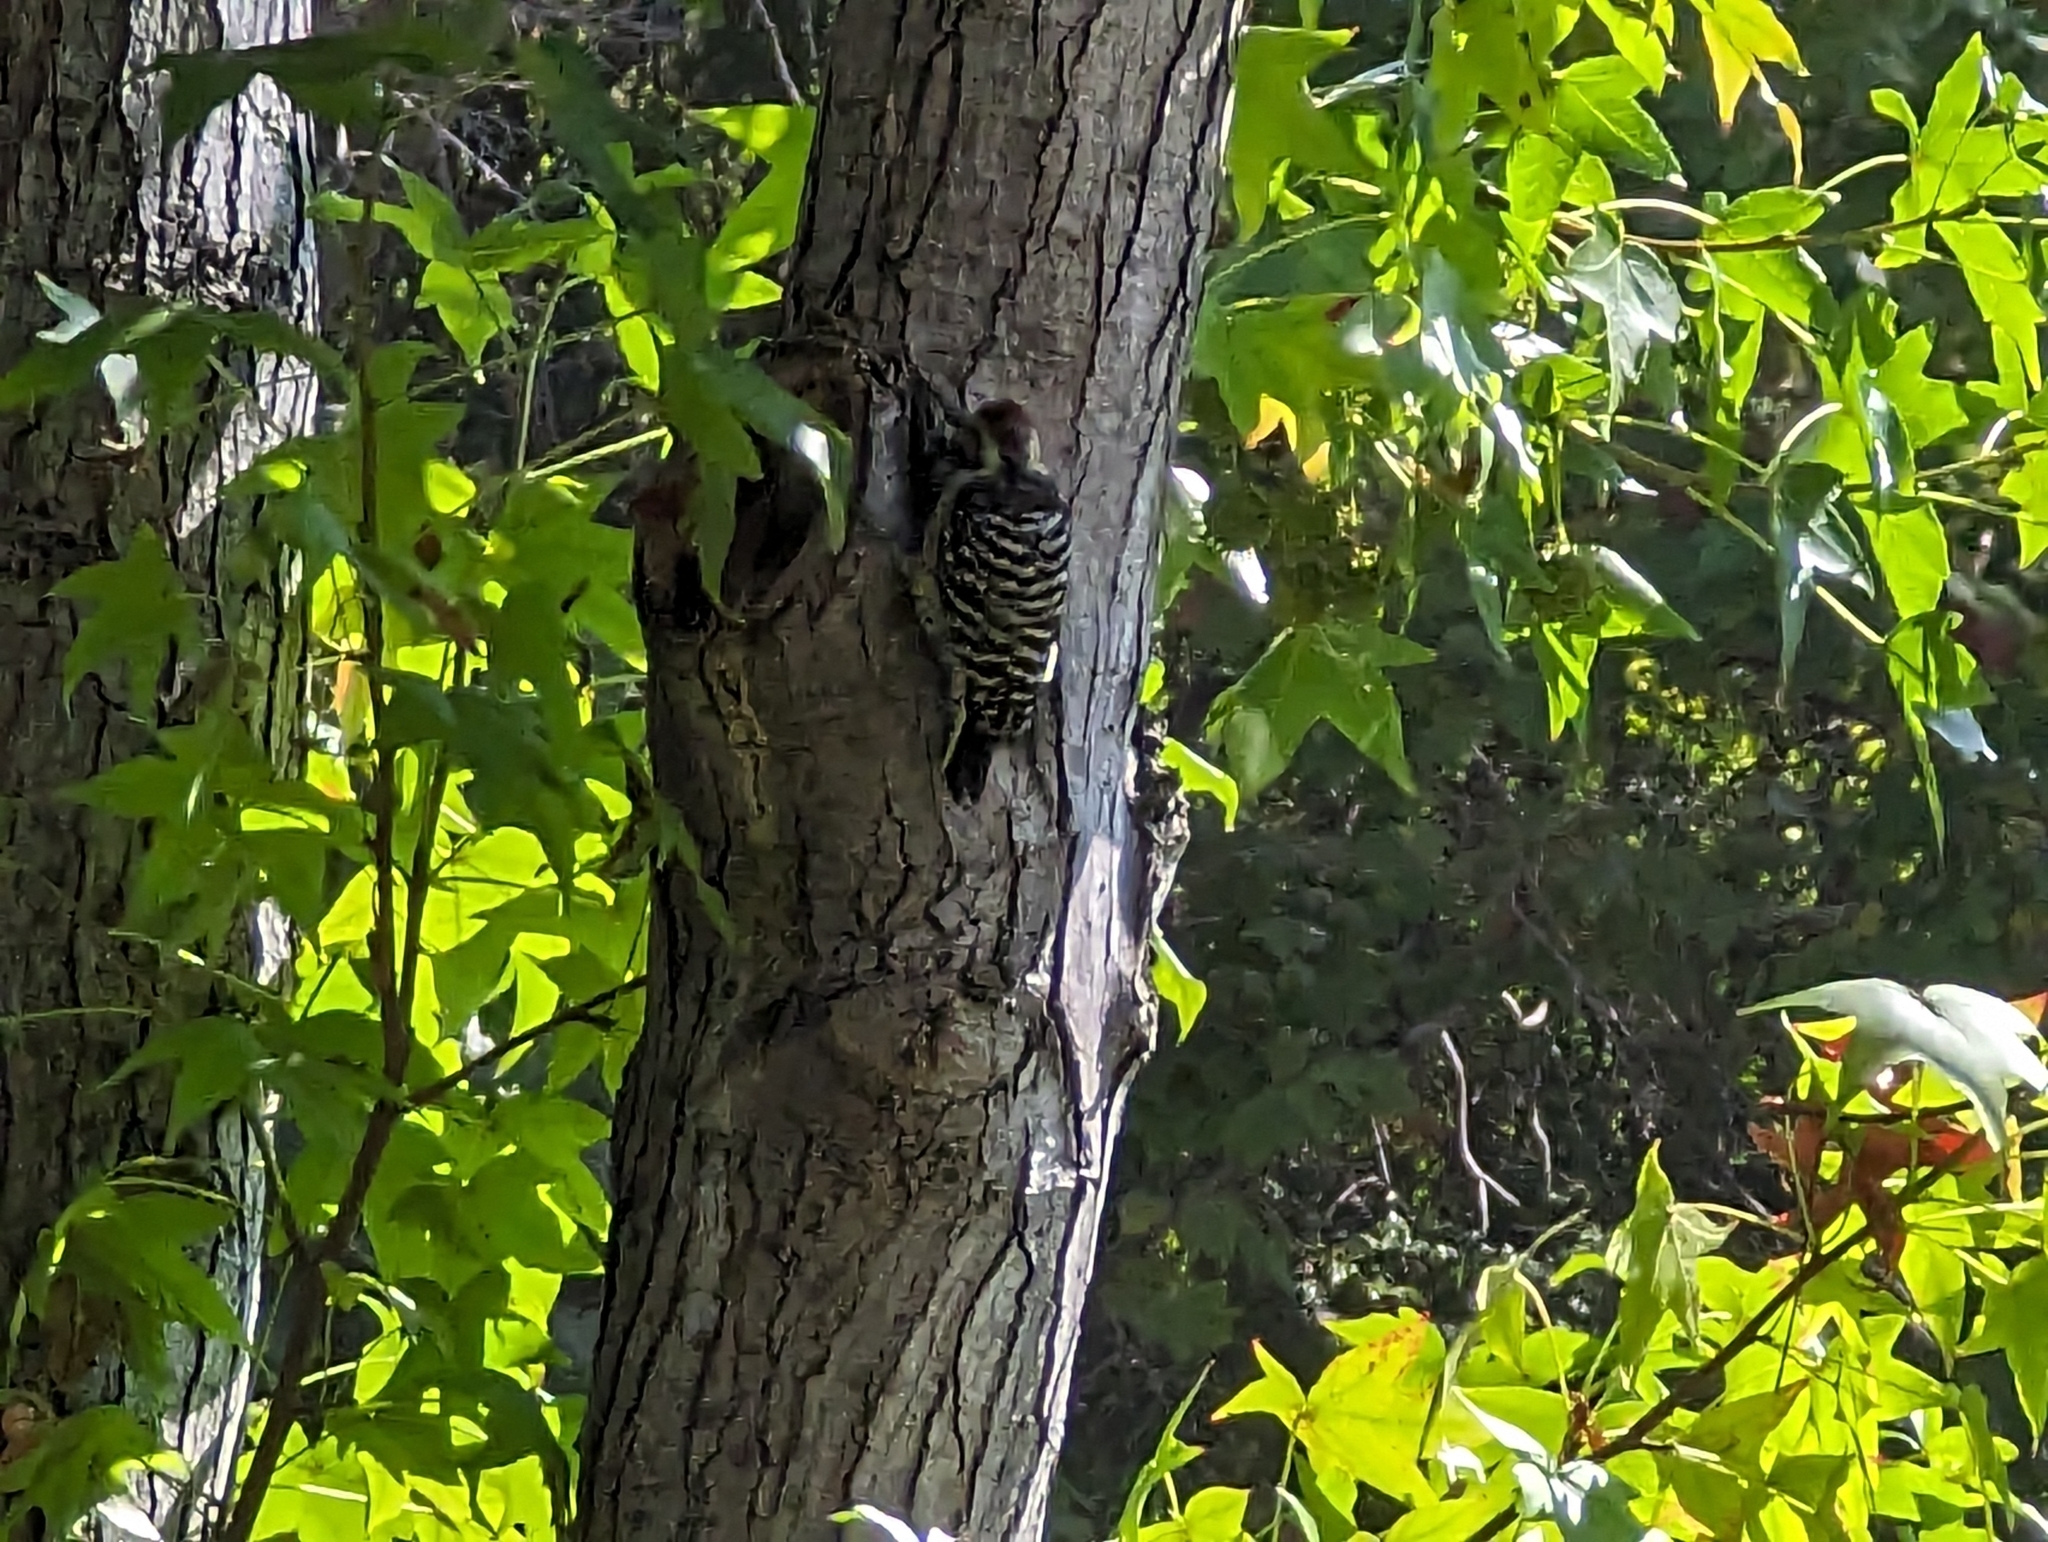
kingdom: Animalia
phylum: Chordata
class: Aves
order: Piciformes
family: Picidae
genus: Dryobates
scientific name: Dryobates nuttallii
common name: Nuttall's woodpecker
